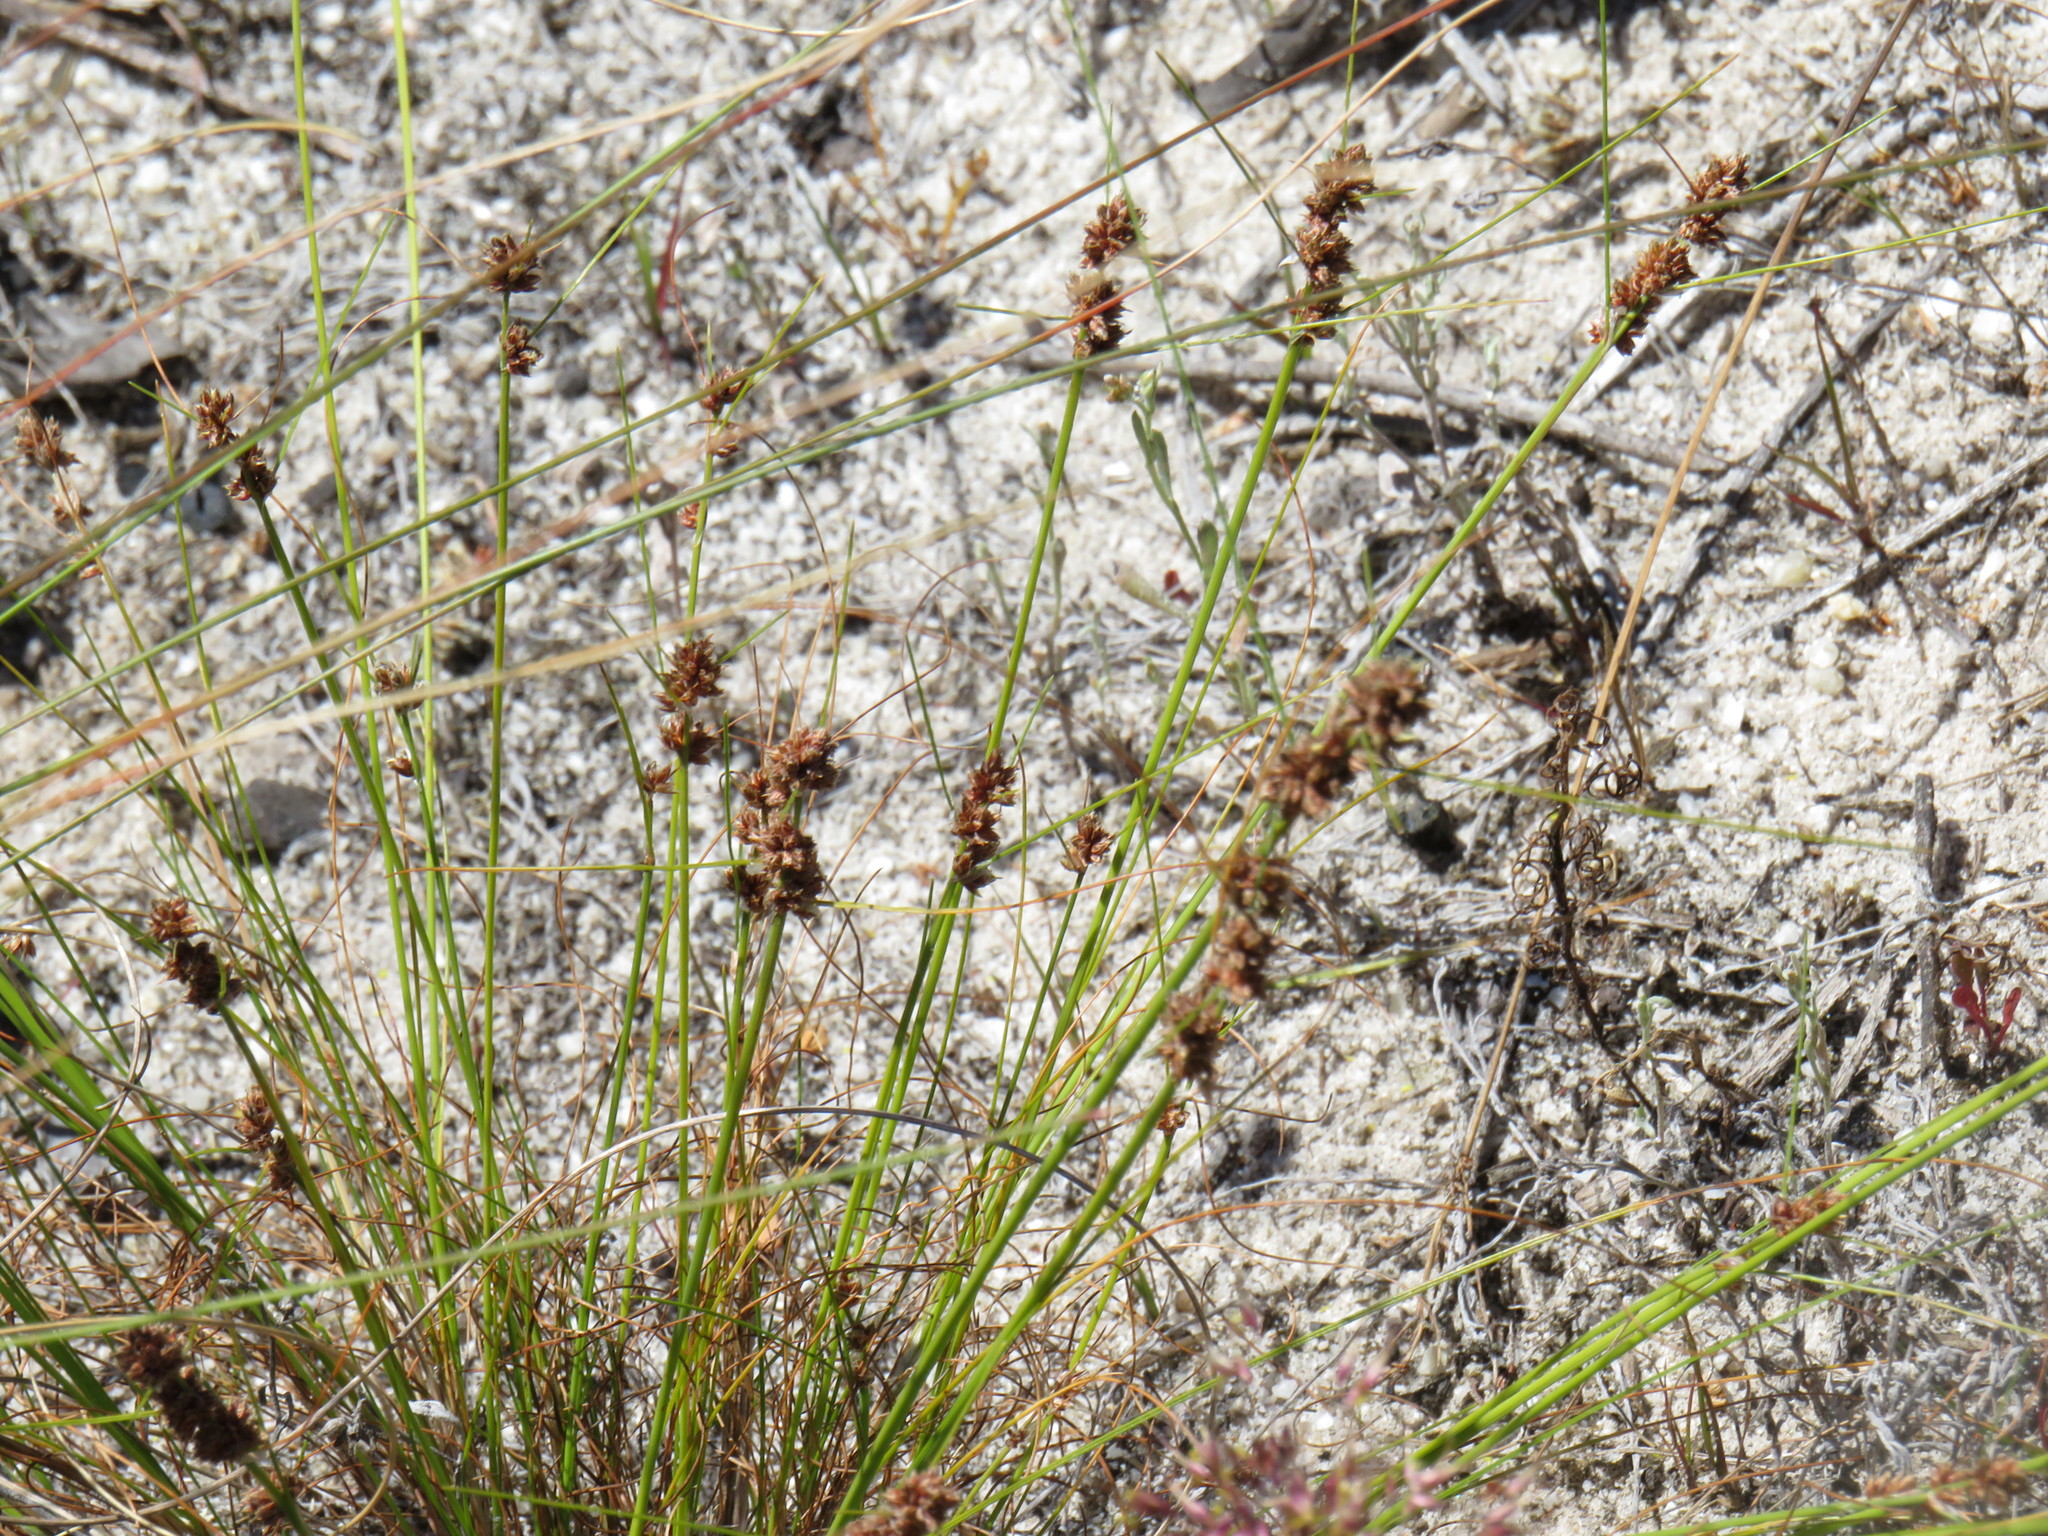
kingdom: Plantae
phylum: Tracheophyta
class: Liliopsida
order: Poales
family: Cyperaceae
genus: Ficinia
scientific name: Ficinia bulbosa
